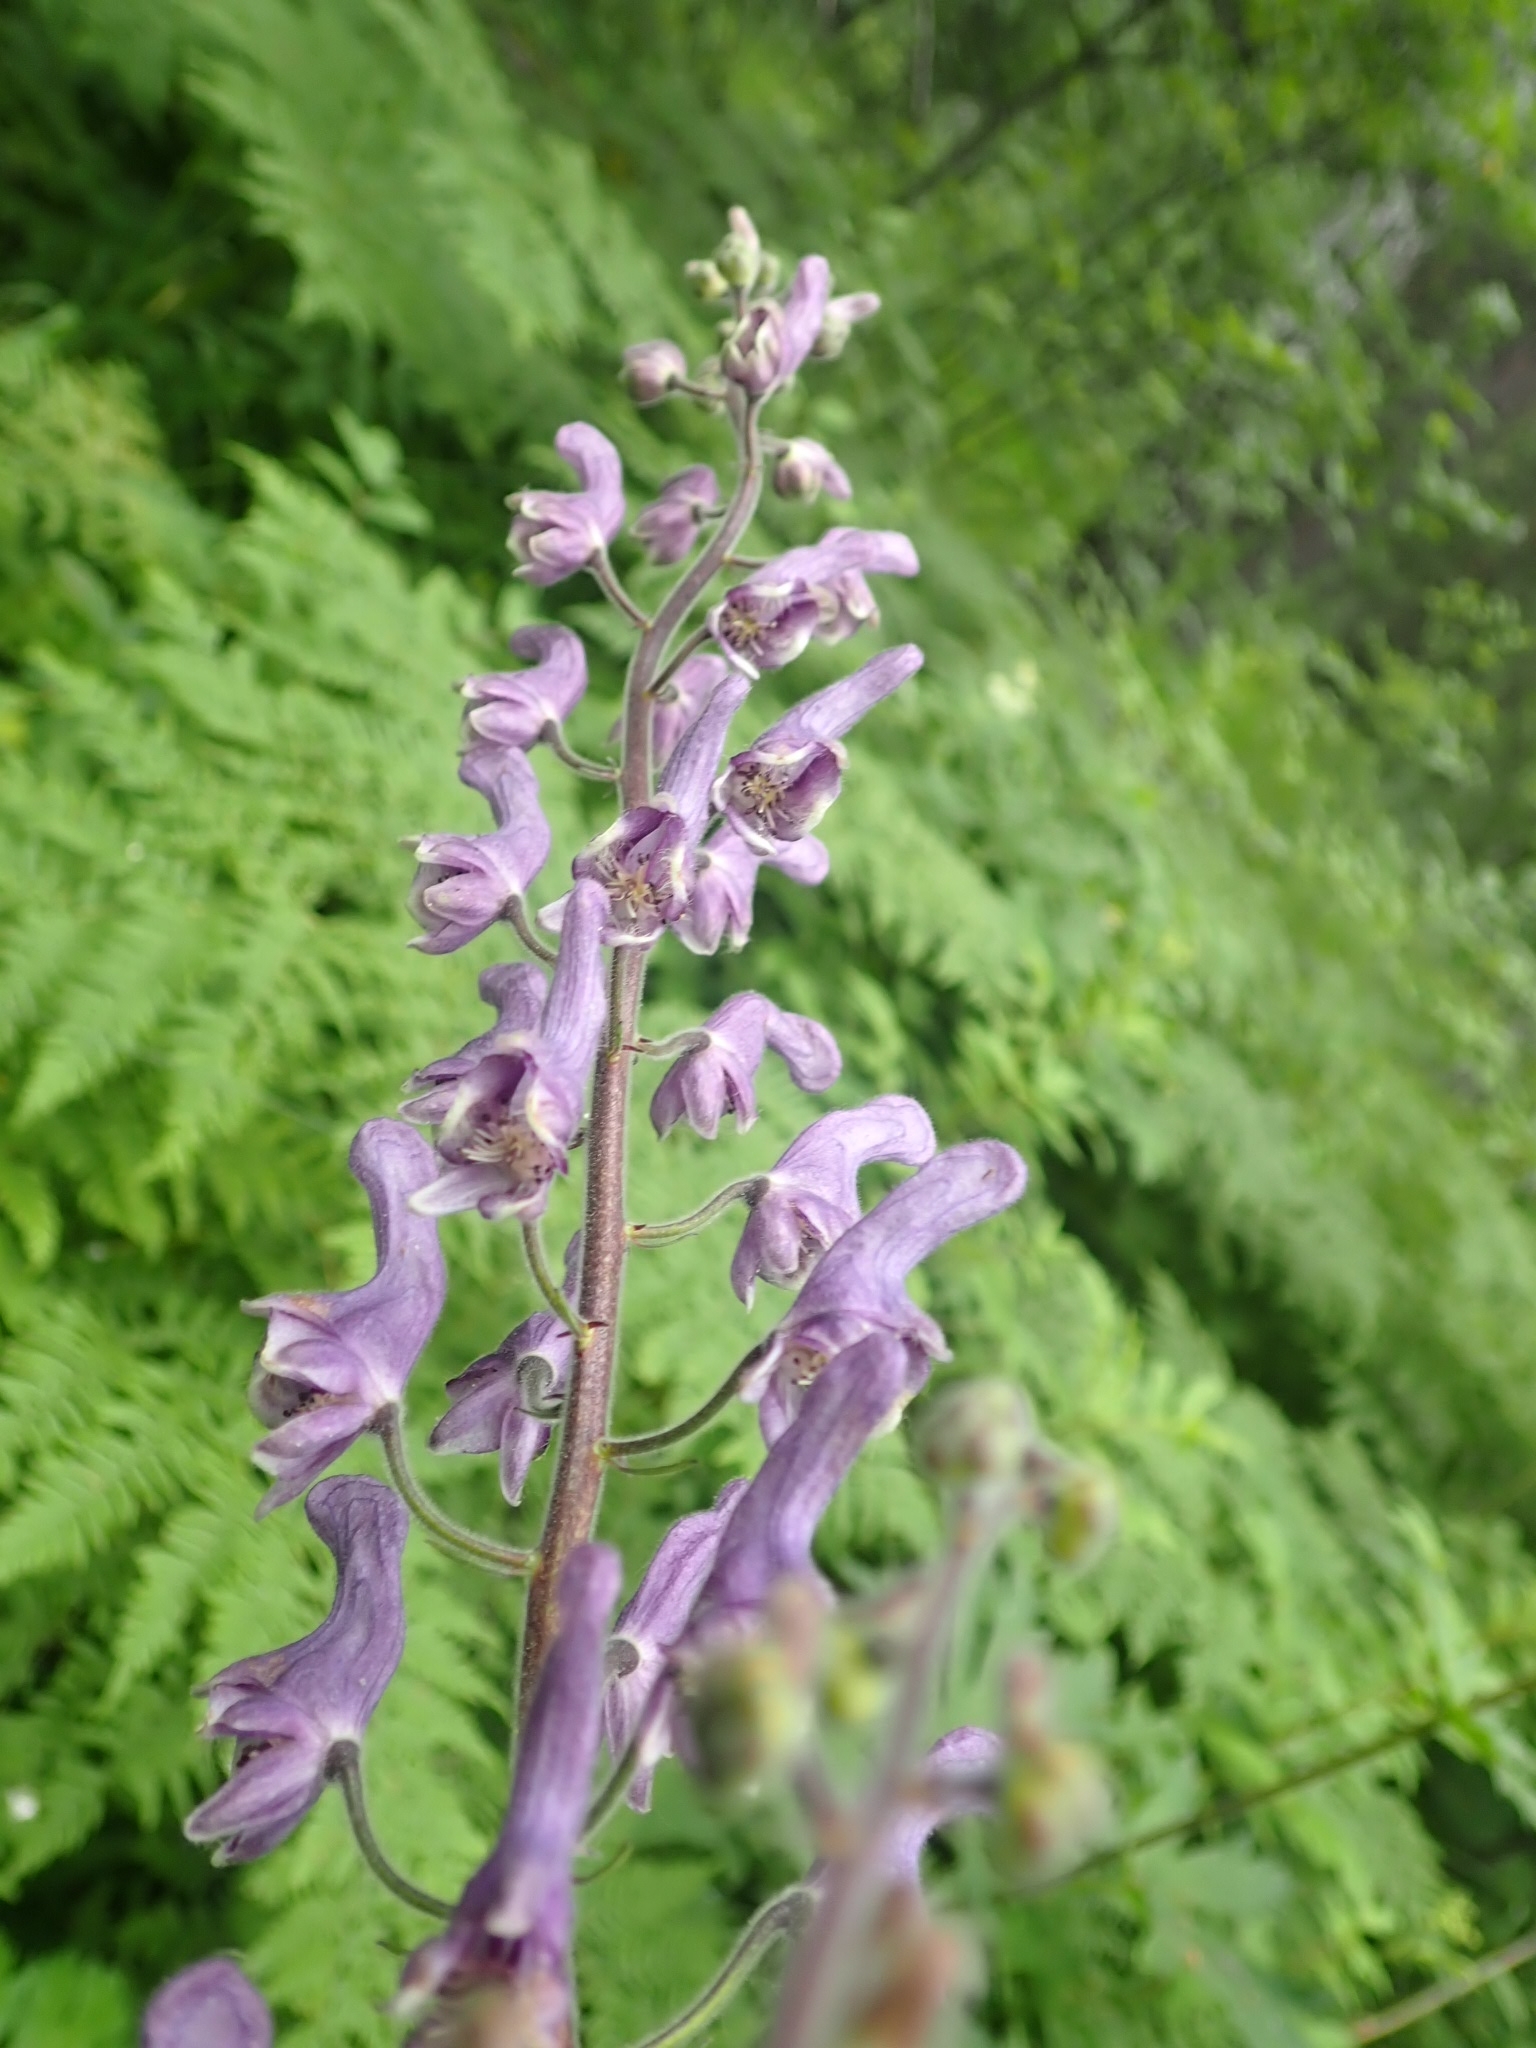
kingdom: Plantae
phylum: Tracheophyta
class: Magnoliopsida
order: Ranunculales
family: Ranunculaceae
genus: Aconitum
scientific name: Aconitum septentrionale
